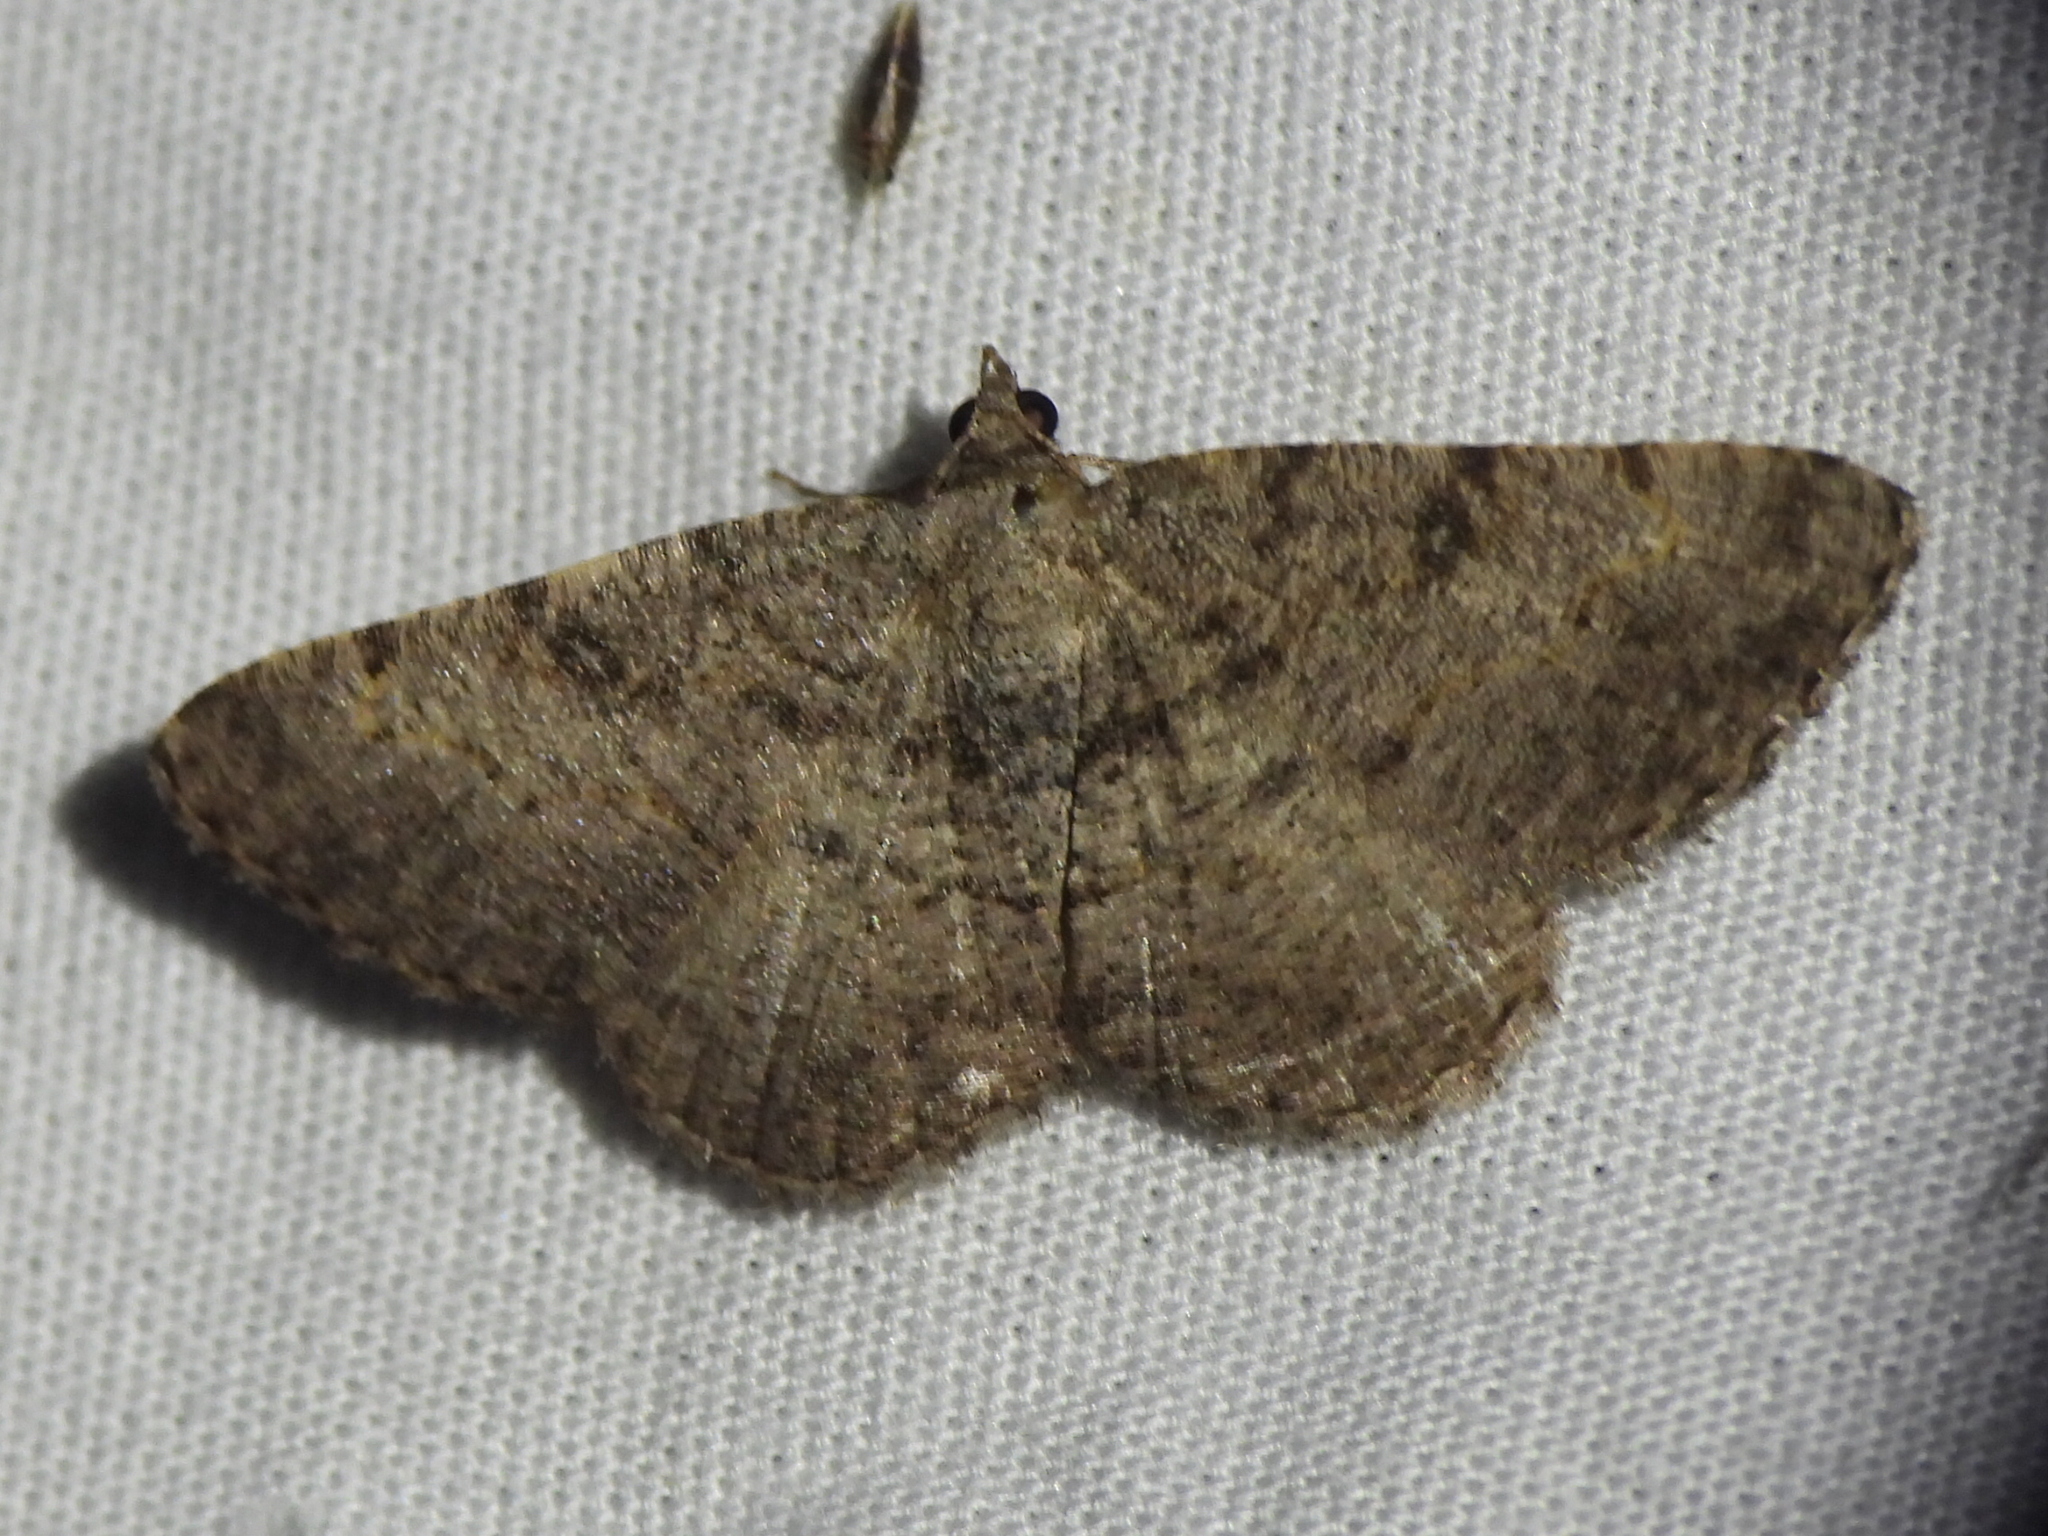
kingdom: Animalia
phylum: Arthropoda
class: Insecta
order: Lepidoptera
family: Geometridae
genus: Digrammia
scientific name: Digrammia gnophosaria
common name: Hollow-spotted angle
